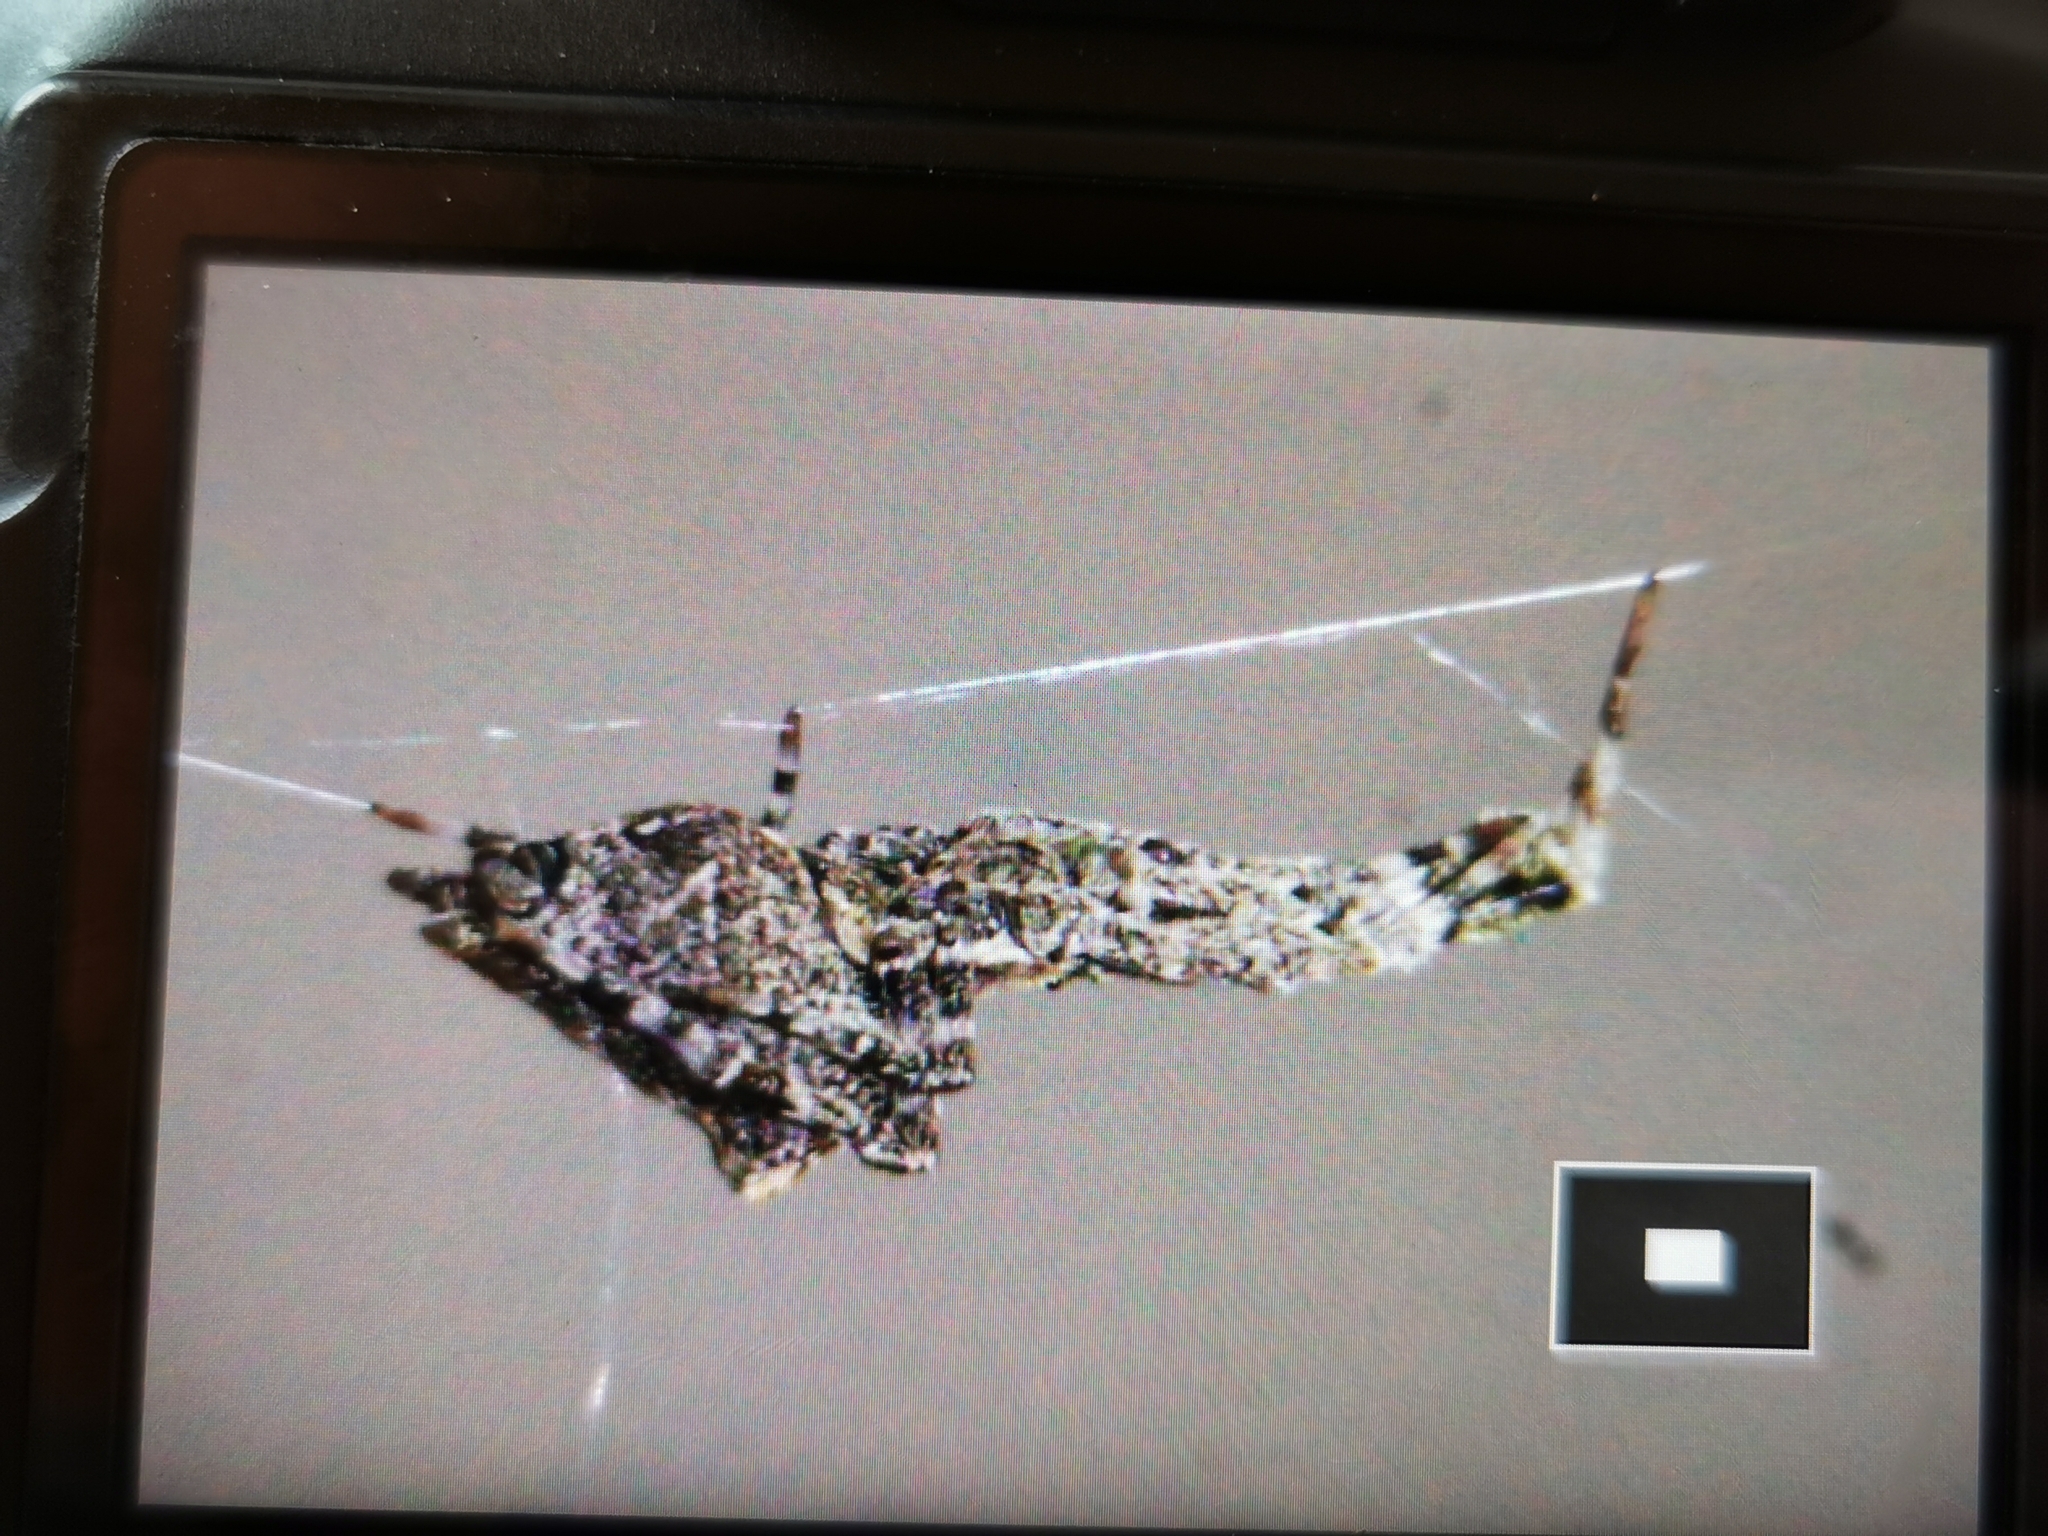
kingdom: Animalia
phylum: Arthropoda
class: Arachnida
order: Araneae
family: Uloboridae
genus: Uloborus
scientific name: Uloborus plumipes
